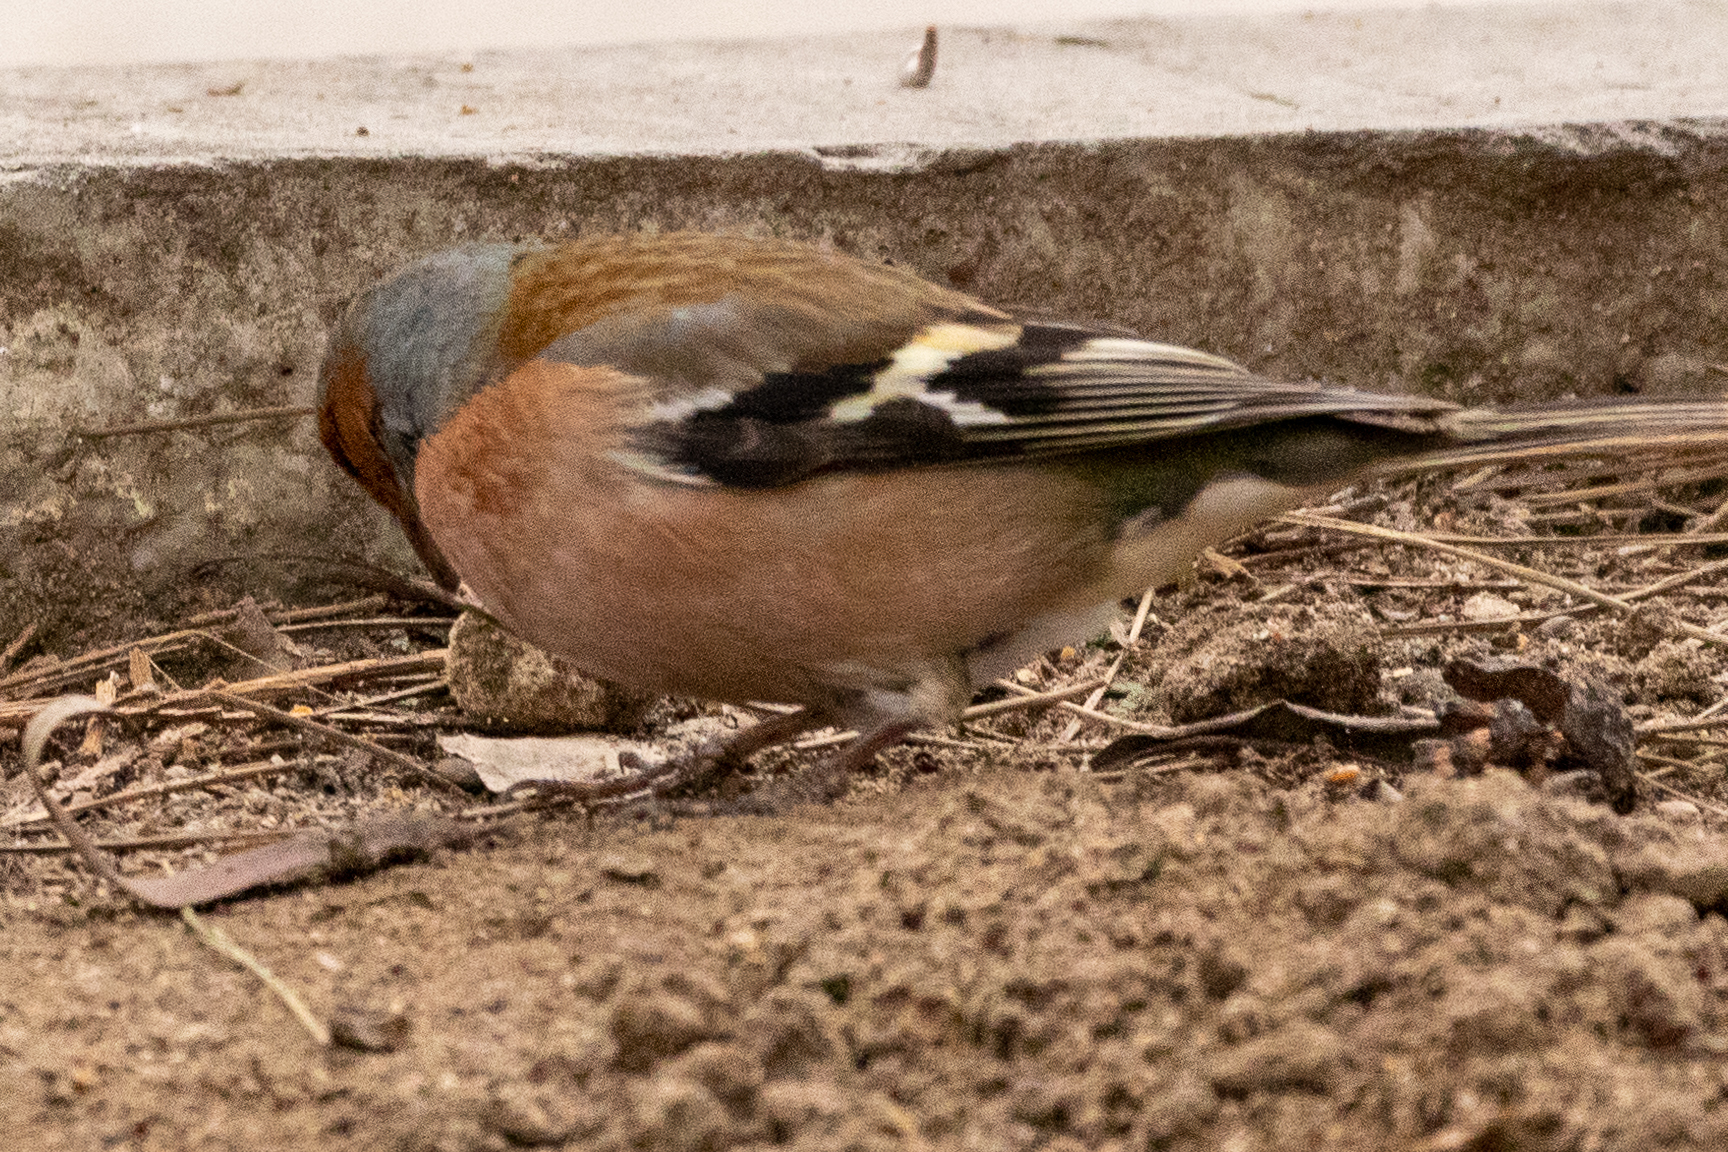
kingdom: Animalia
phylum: Chordata
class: Aves
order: Passeriformes
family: Fringillidae
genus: Fringilla
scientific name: Fringilla coelebs
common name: Common chaffinch
